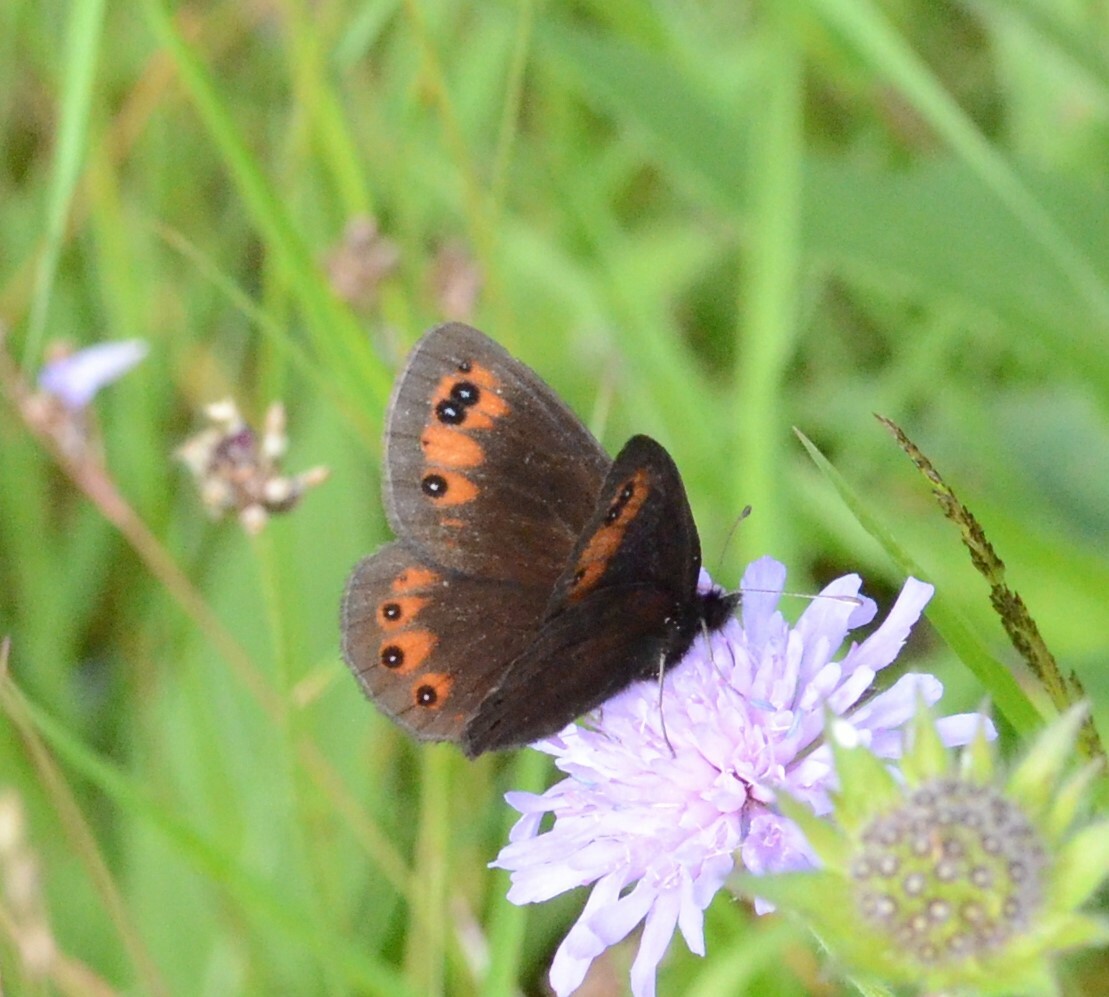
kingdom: Animalia
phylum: Arthropoda
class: Insecta
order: Lepidoptera
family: Nymphalidae
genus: Erebia
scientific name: Erebia meolans
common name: Piedmont ringlet
